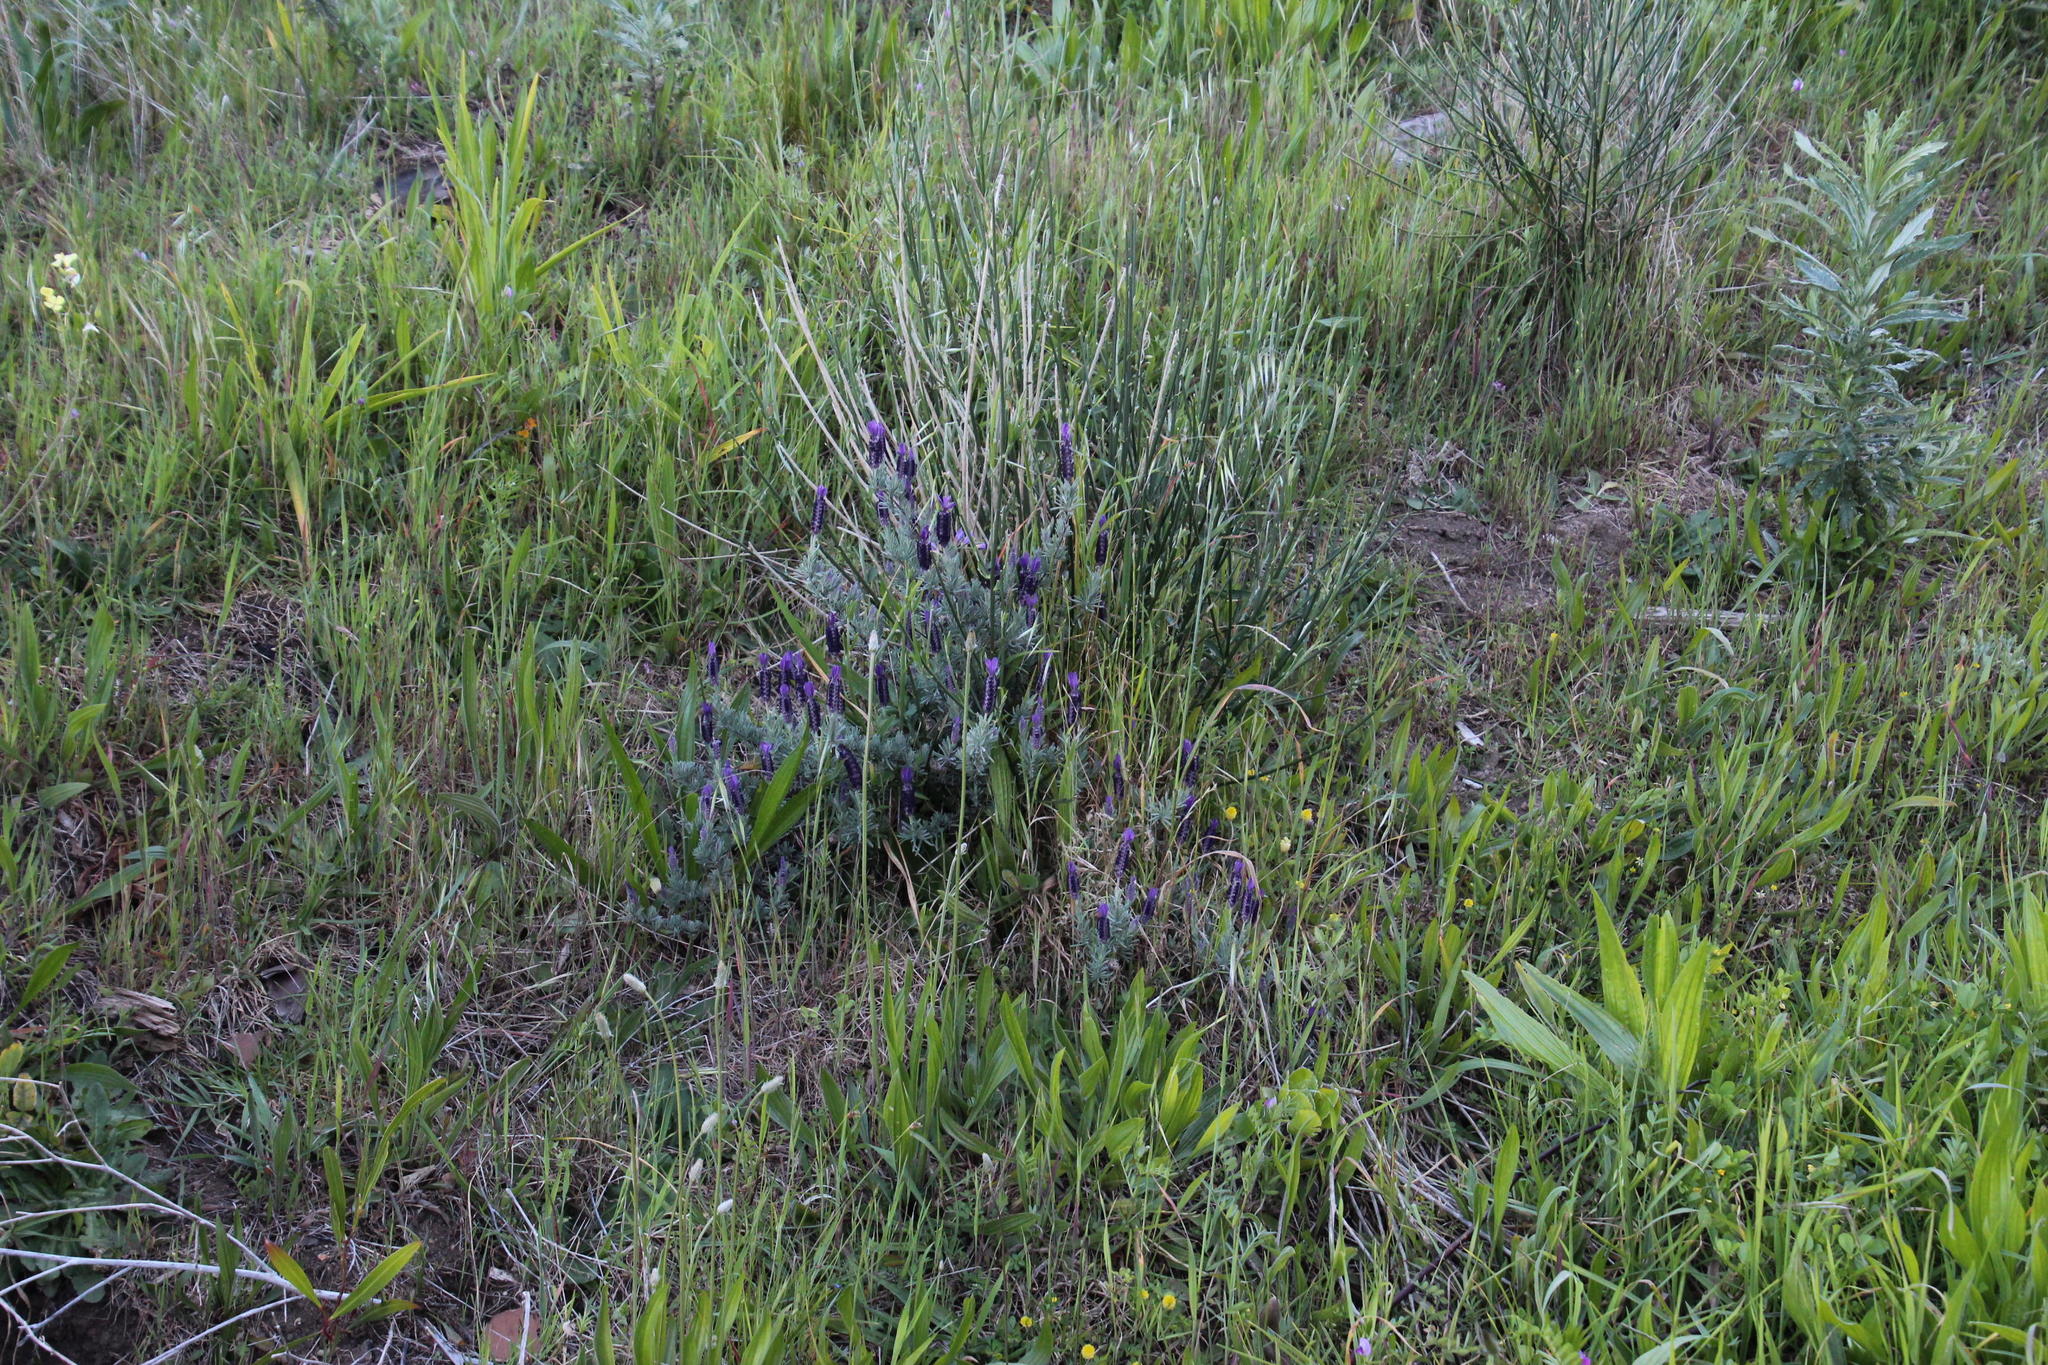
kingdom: Plantae
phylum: Tracheophyta
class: Magnoliopsida
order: Lamiales
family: Lamiaceae
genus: Lavandula
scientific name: Lavandula stoechas
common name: French lavender
